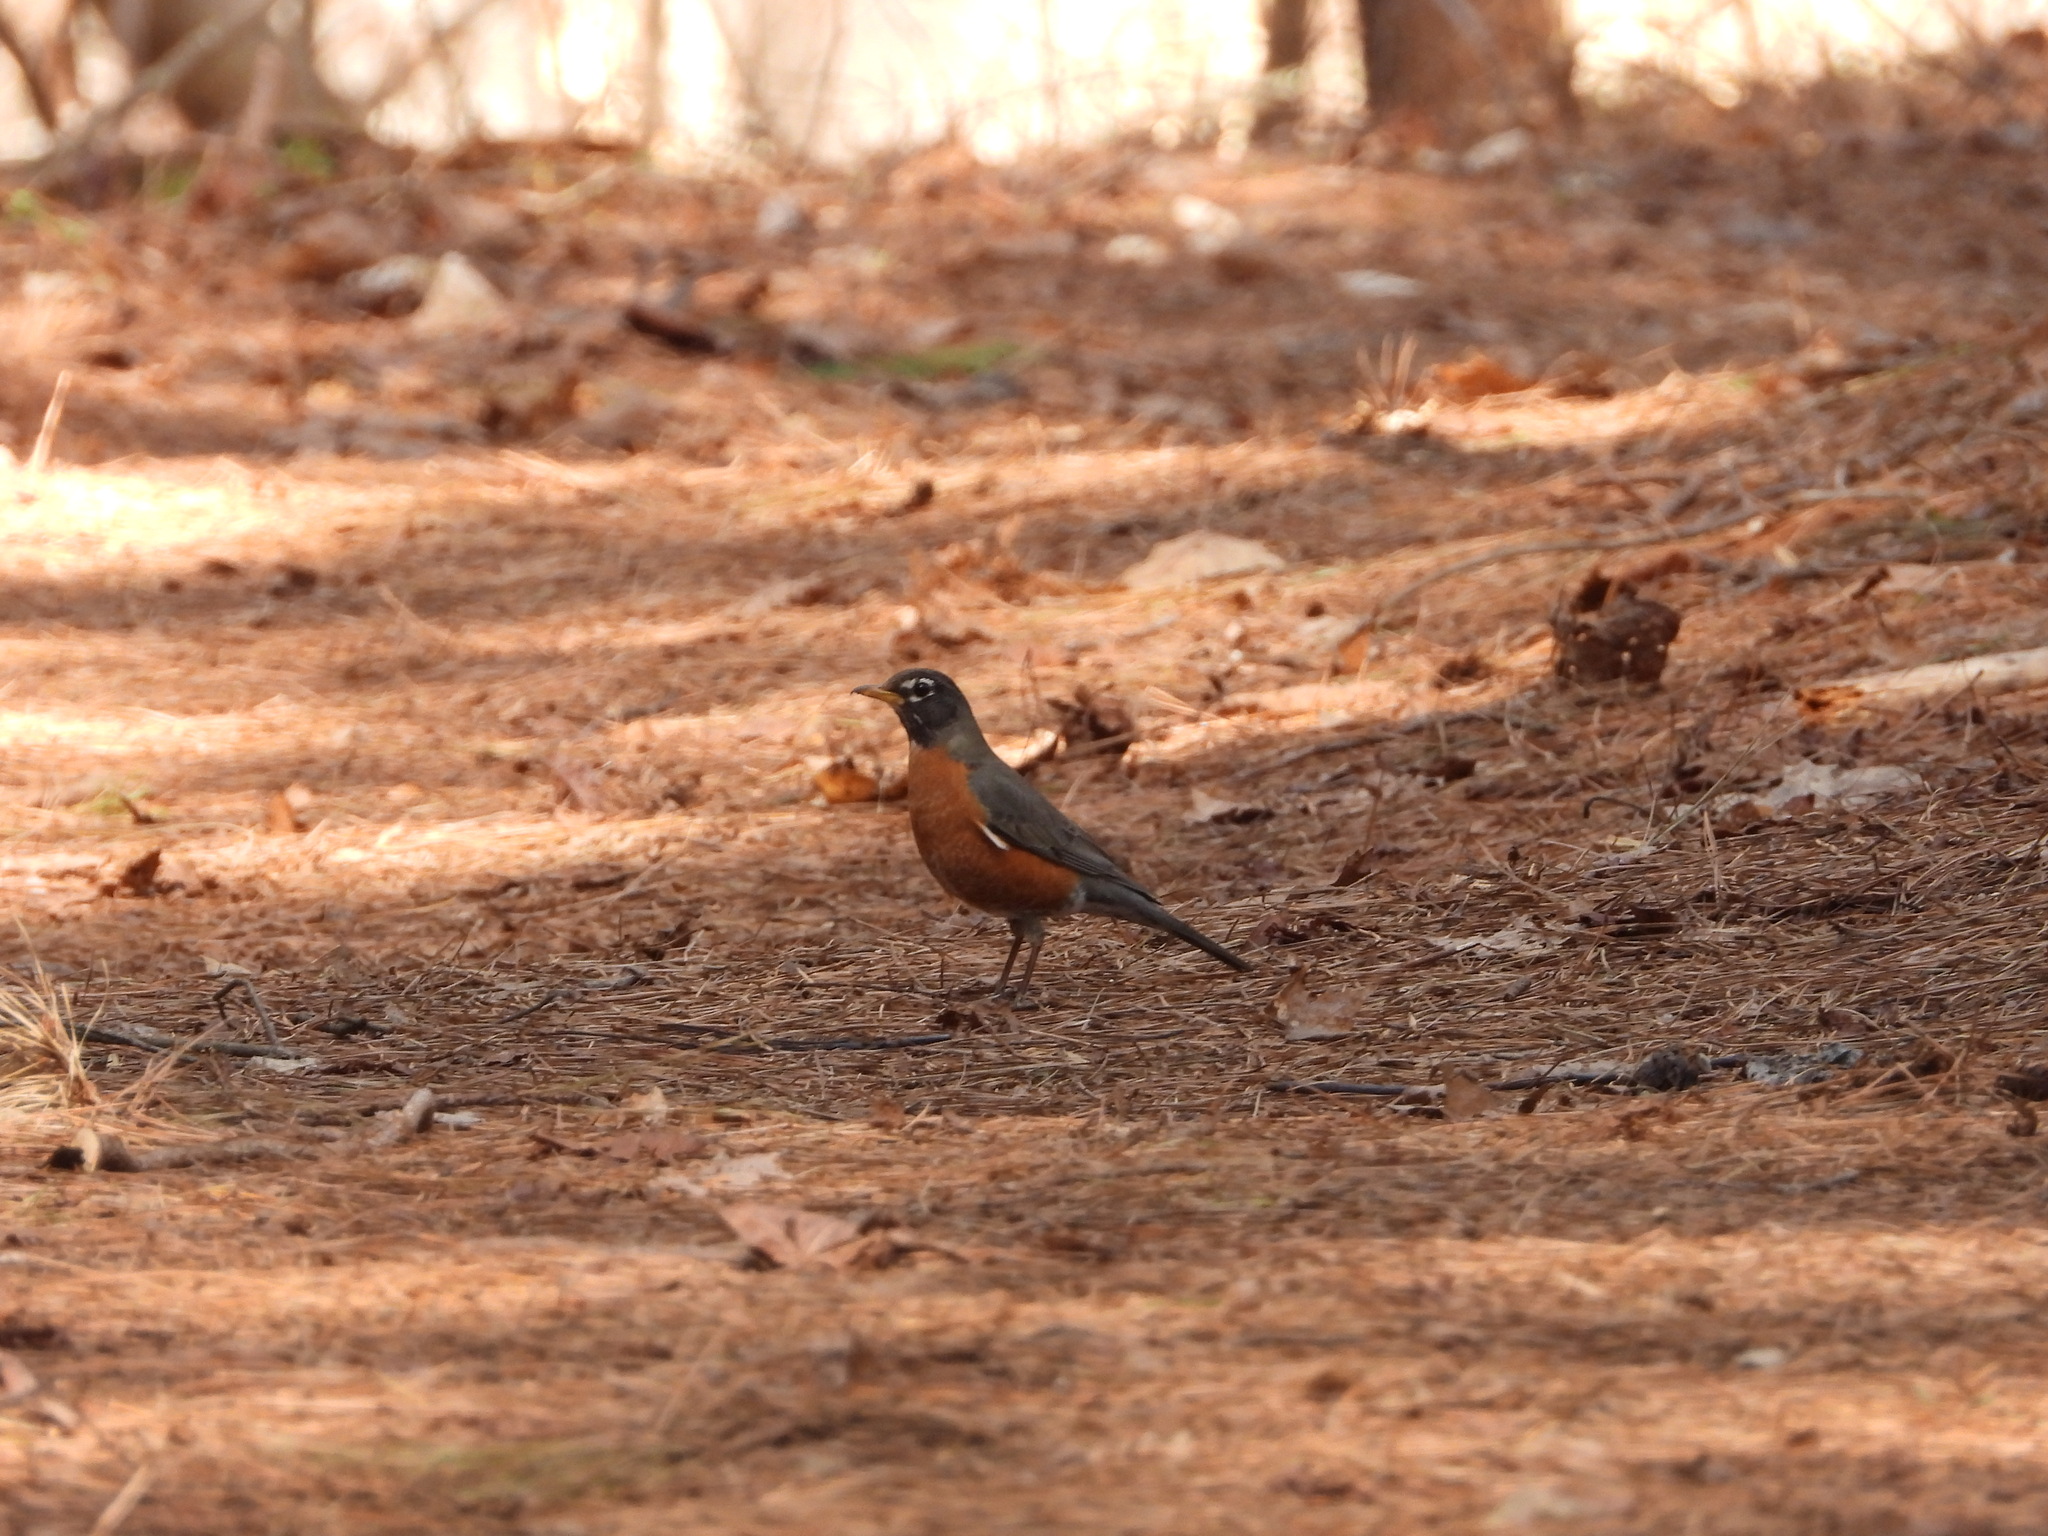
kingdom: Animalia
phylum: Chordata
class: Aves
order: Passeriformes
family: Turdidae
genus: Turdus
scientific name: Turdus migratorius
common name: American robin
